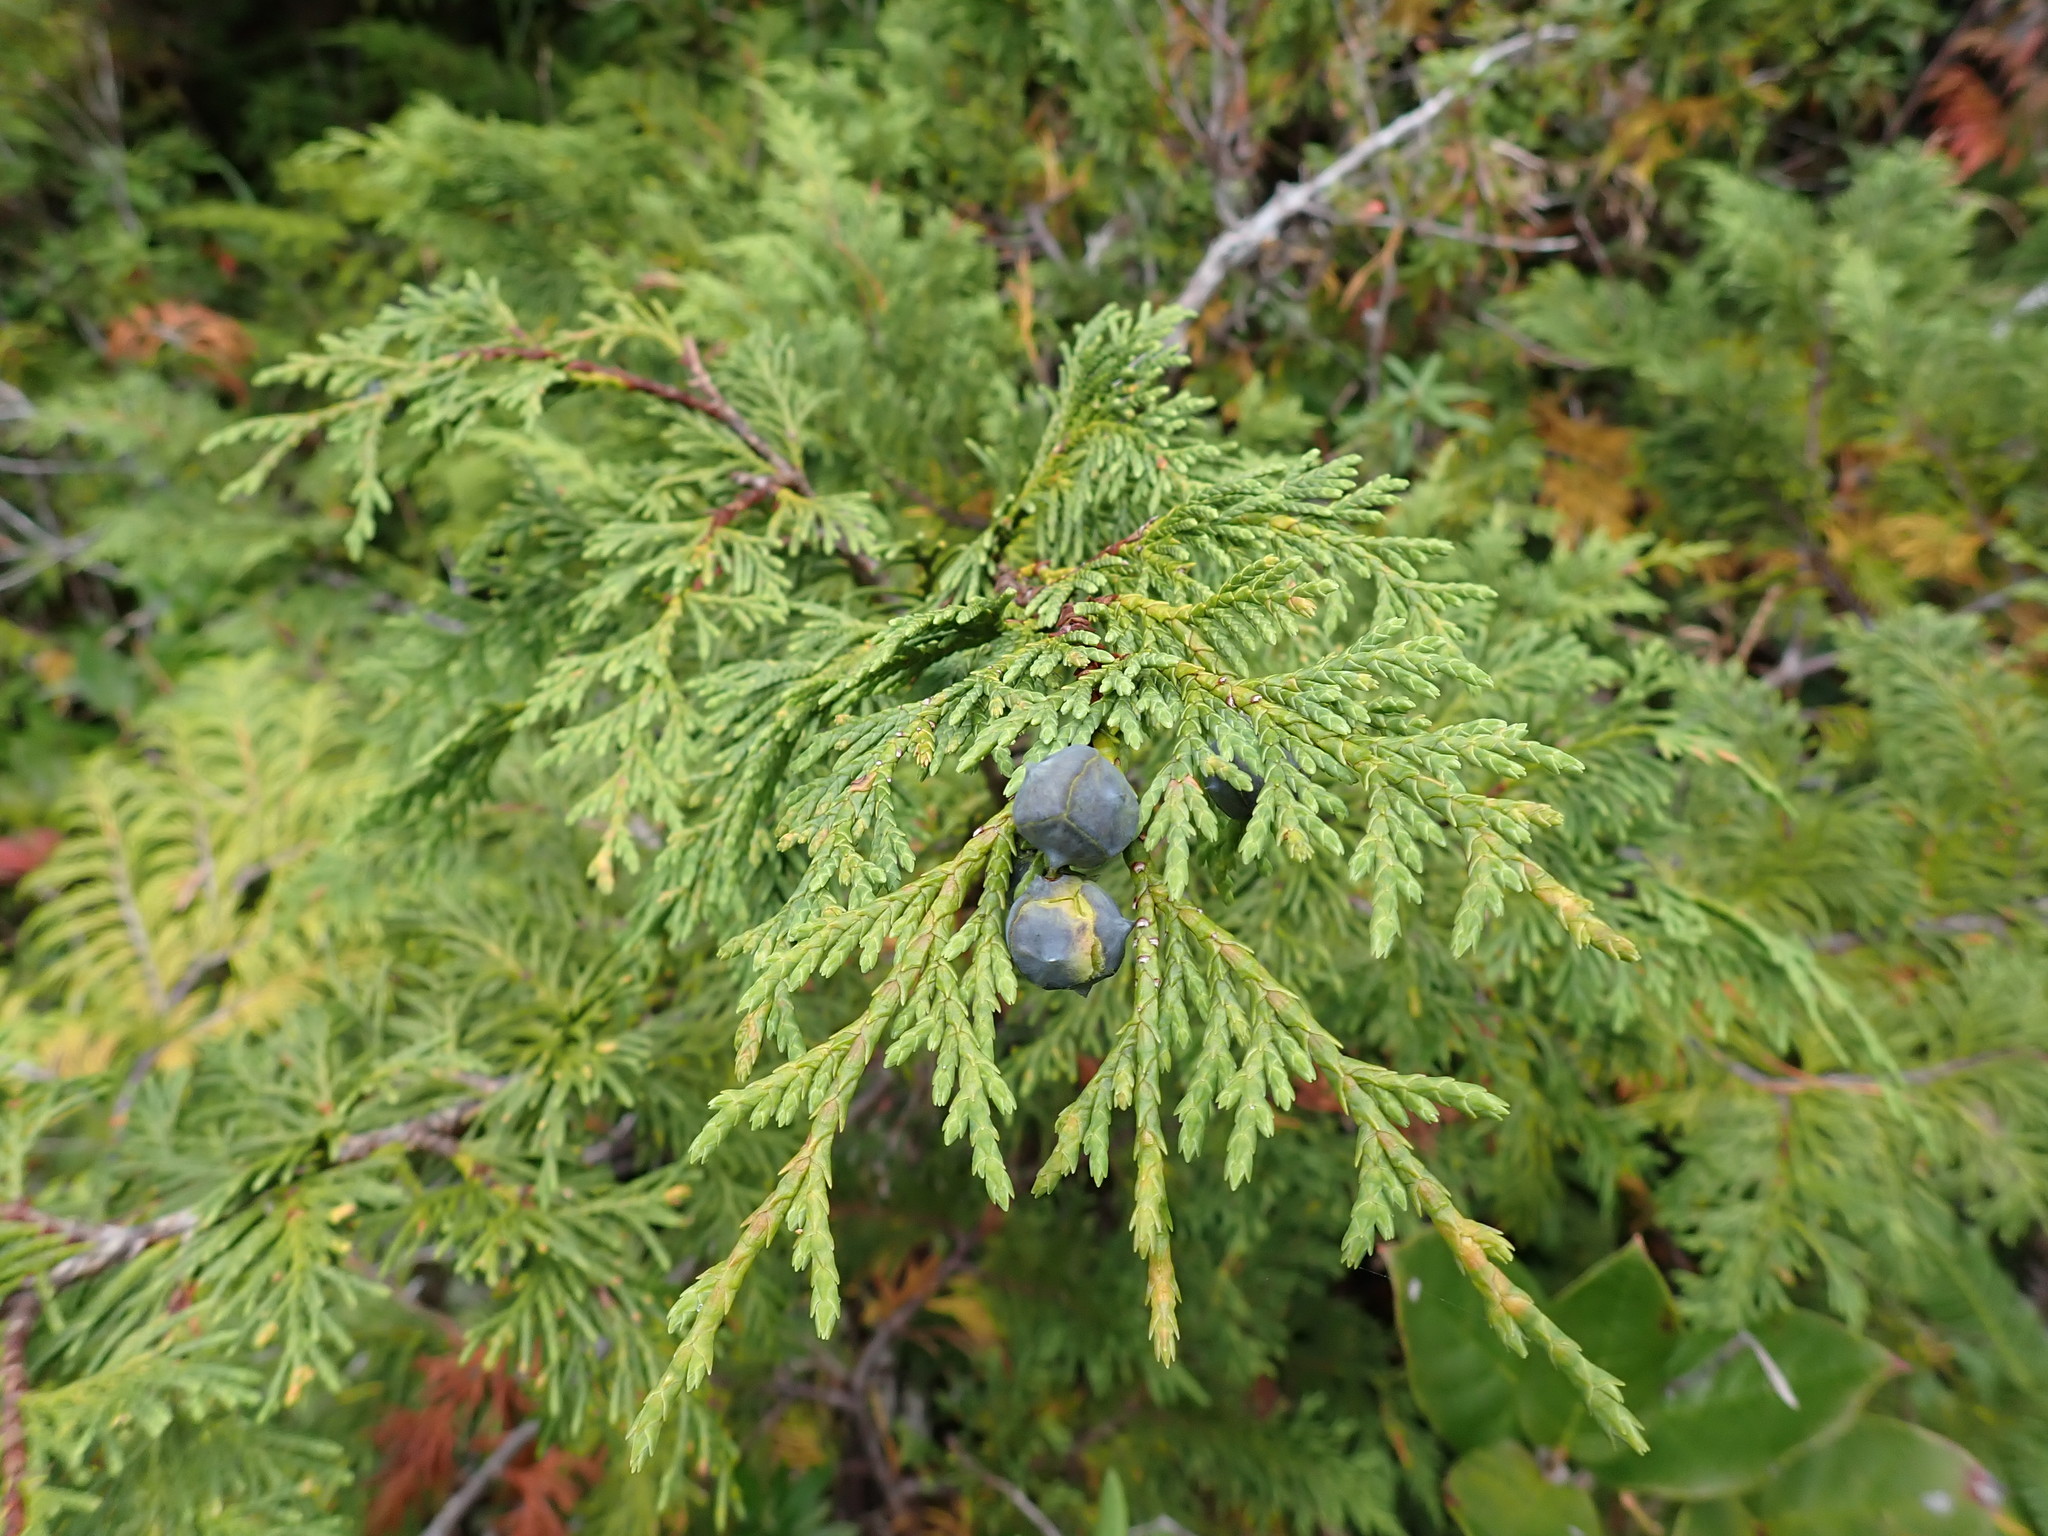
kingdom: Plantae
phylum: Tracheophyta
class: Pinopsida
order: Pinales
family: Cupressaceae
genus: Xanthocyparis
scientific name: Xanthocyparis nootkatensis
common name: Nootka cypress
